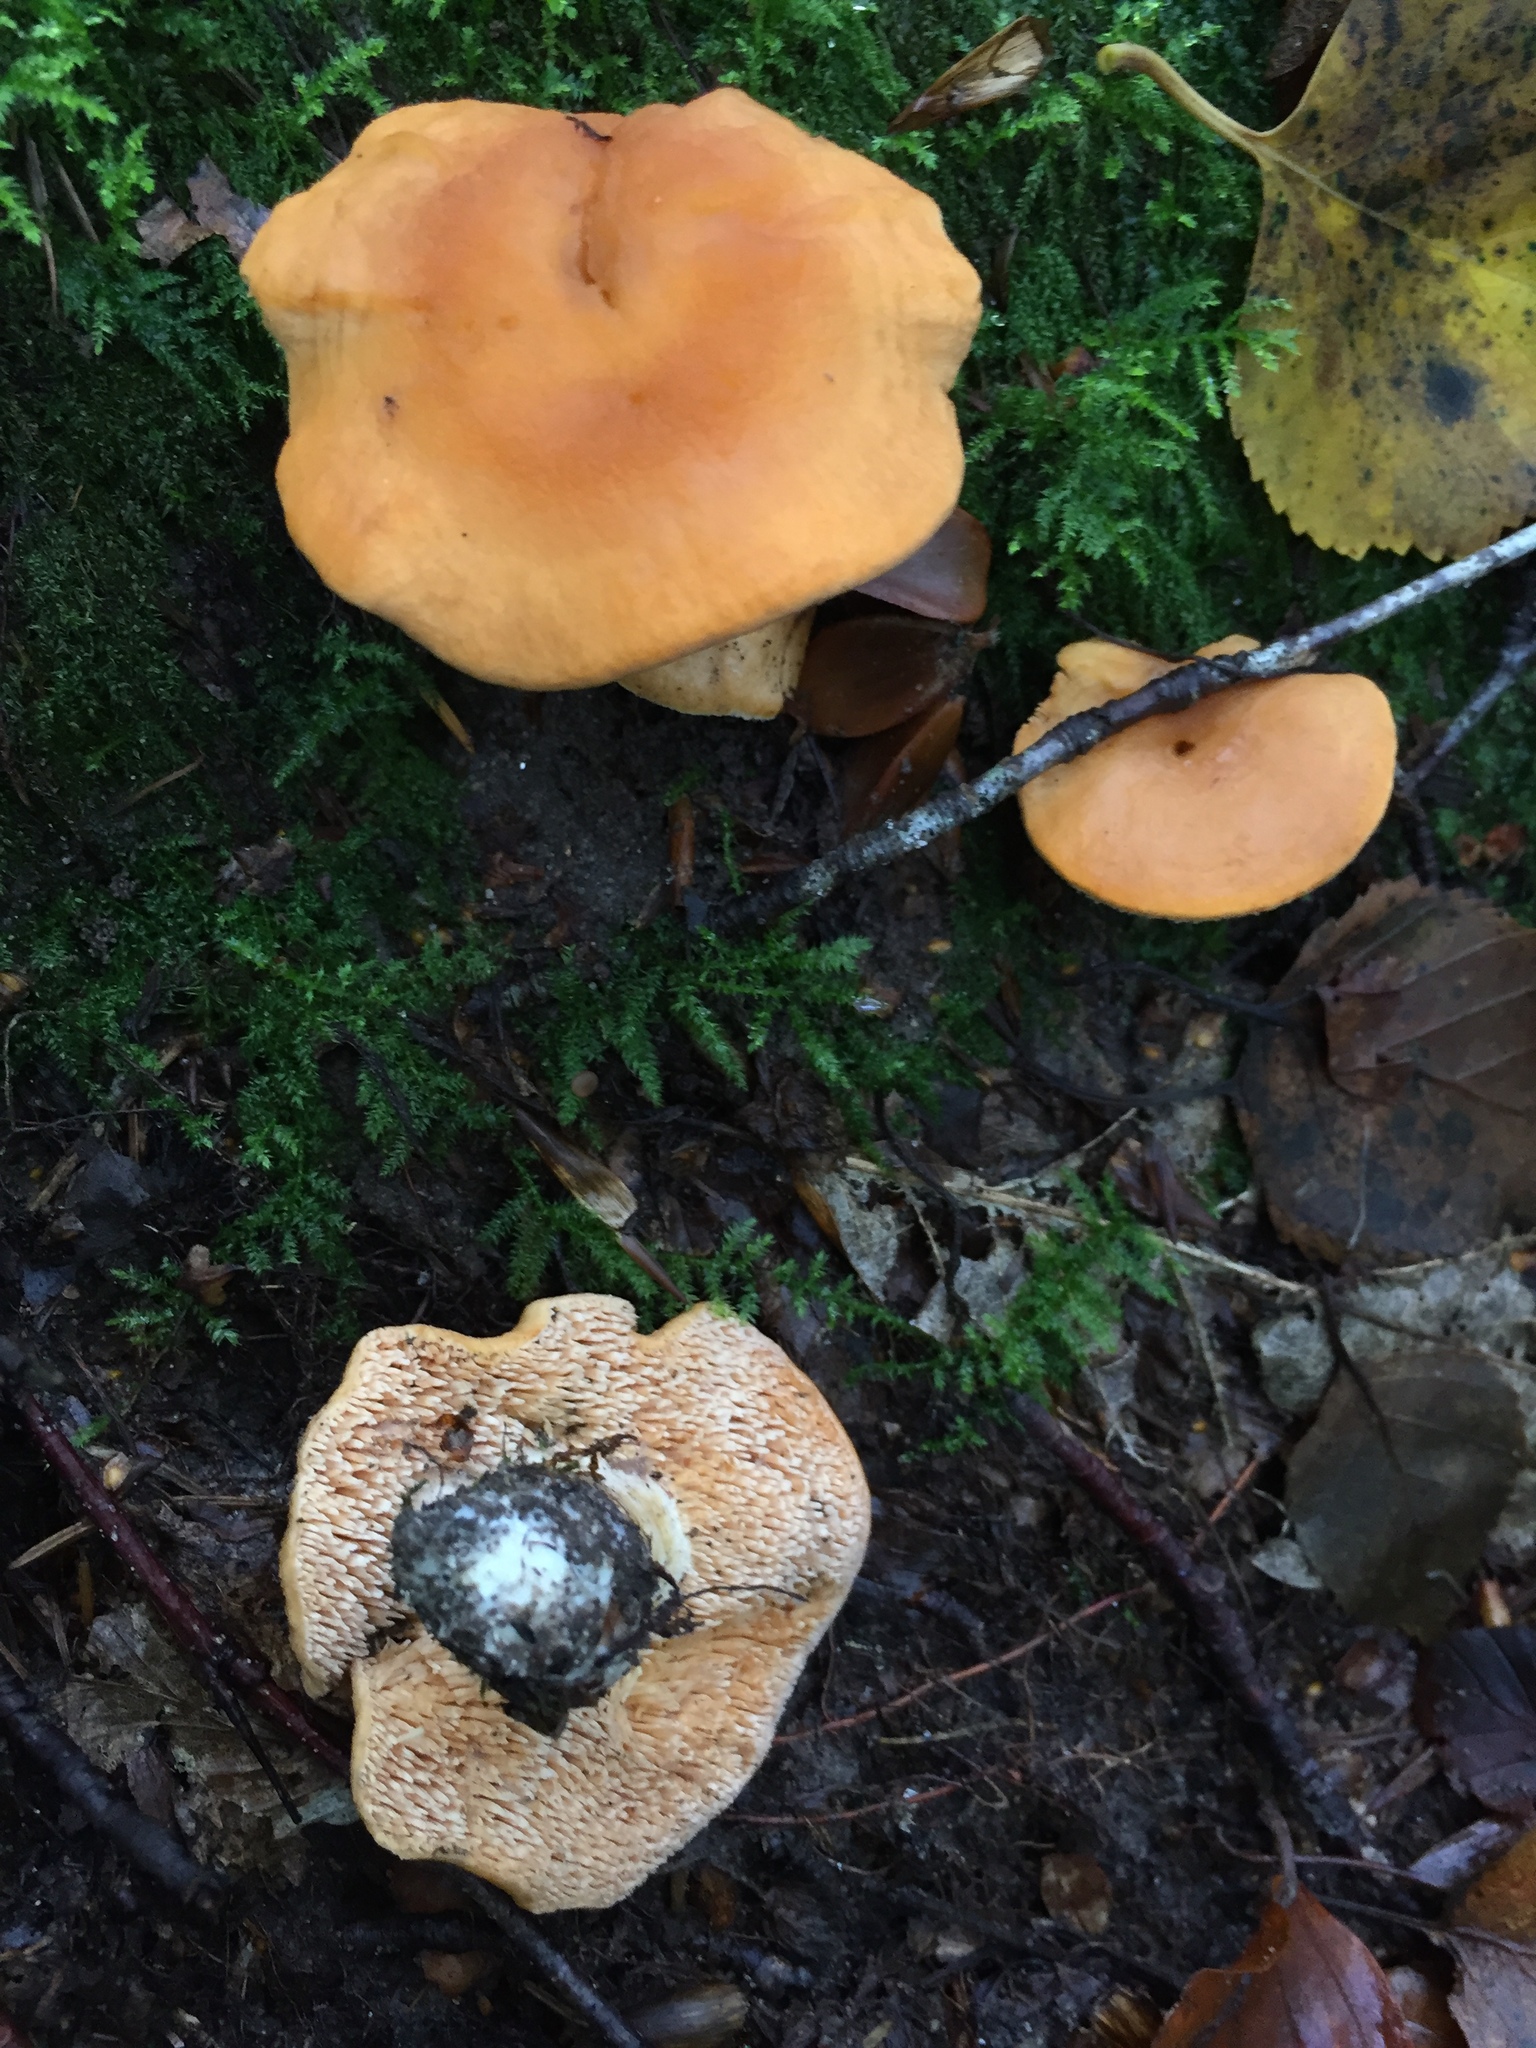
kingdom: Fungi
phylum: Basidiomycota
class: Agaricomycetes
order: Cantharellales
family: Hydnaceae
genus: Hydnum
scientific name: Hydnum rufescens
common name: Terracotta hedgehog
